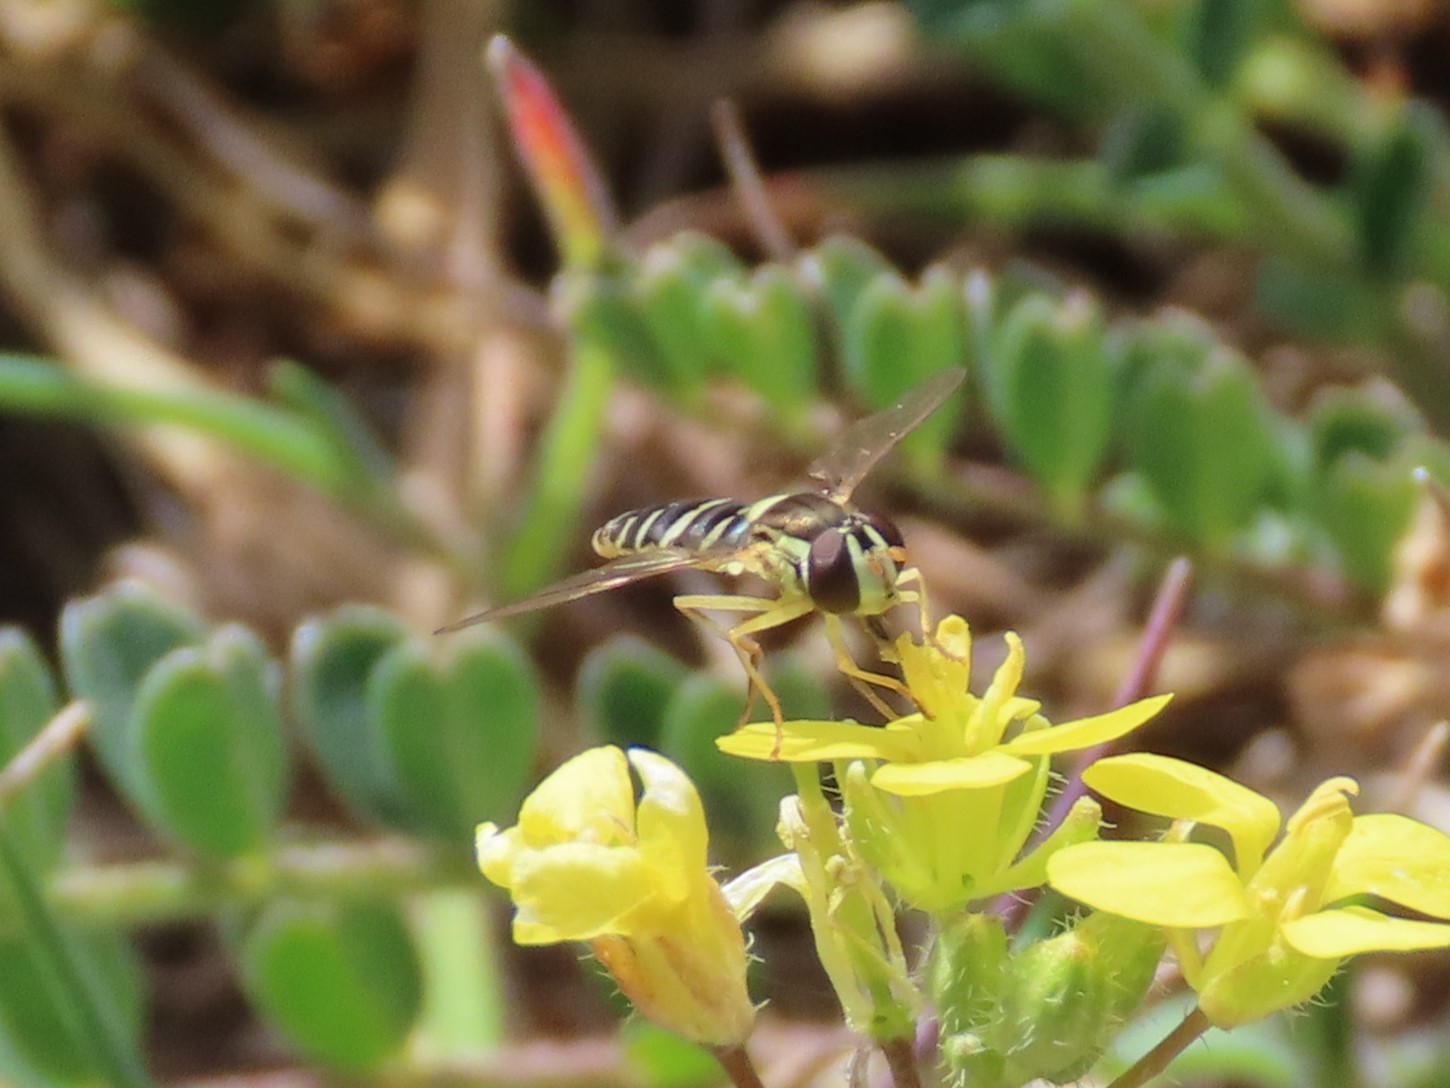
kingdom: Animalia
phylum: Arthropoda
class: Insecta
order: Diptera
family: Syrphidae
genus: Sphaerophoria
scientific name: Sphaerophoria
